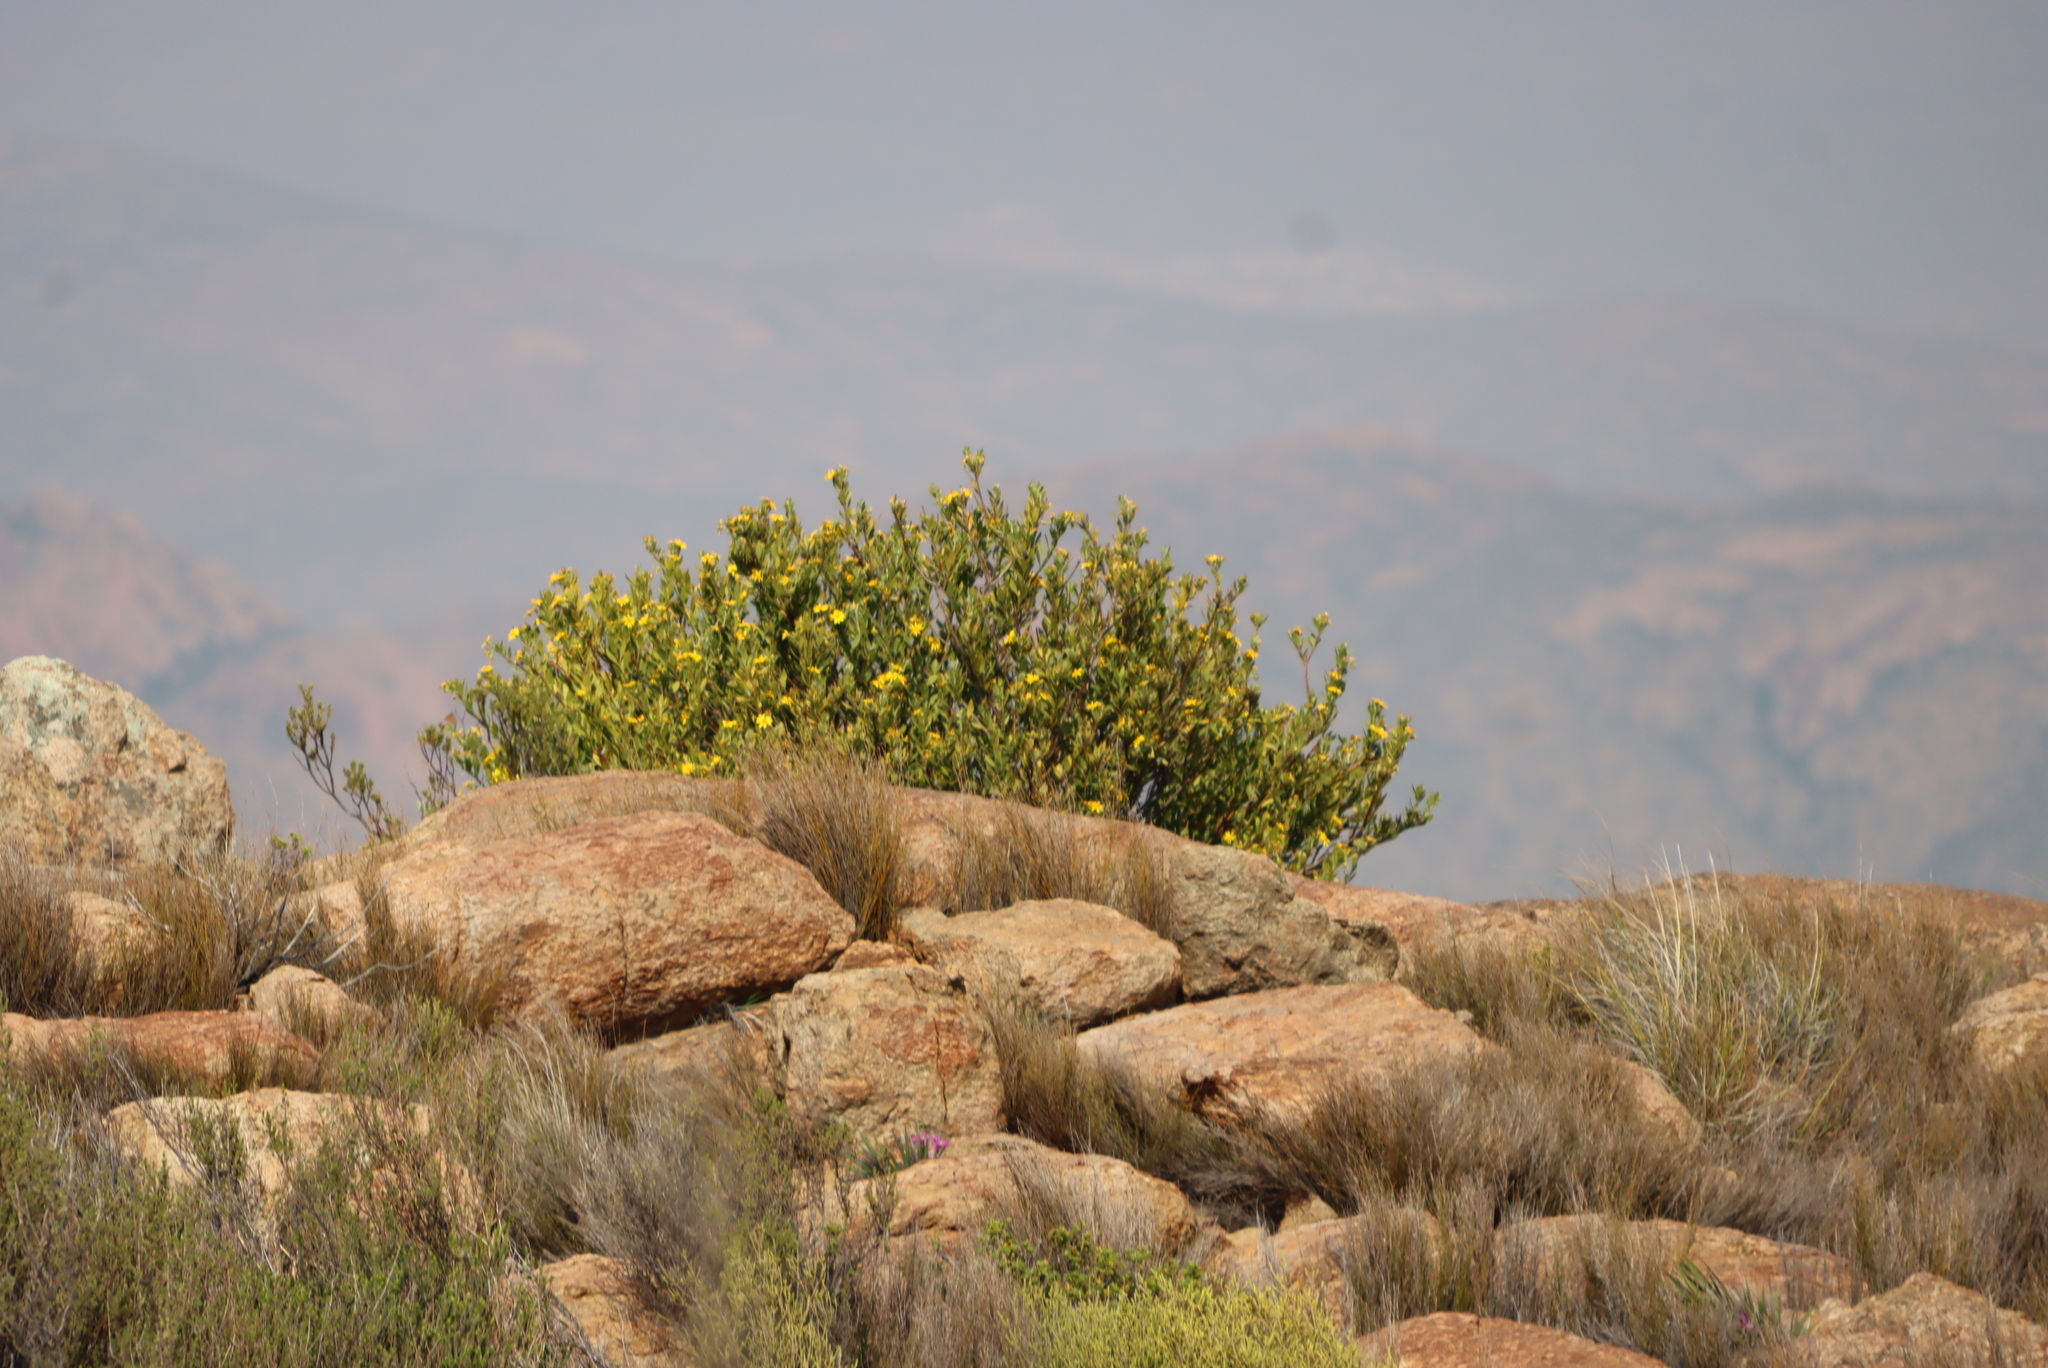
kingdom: Plantae
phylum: Tracheophyta
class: Magnoliopsida
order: Asterales
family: Asteraceae
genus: Osteospermum
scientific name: Osteospermum moniliferum
